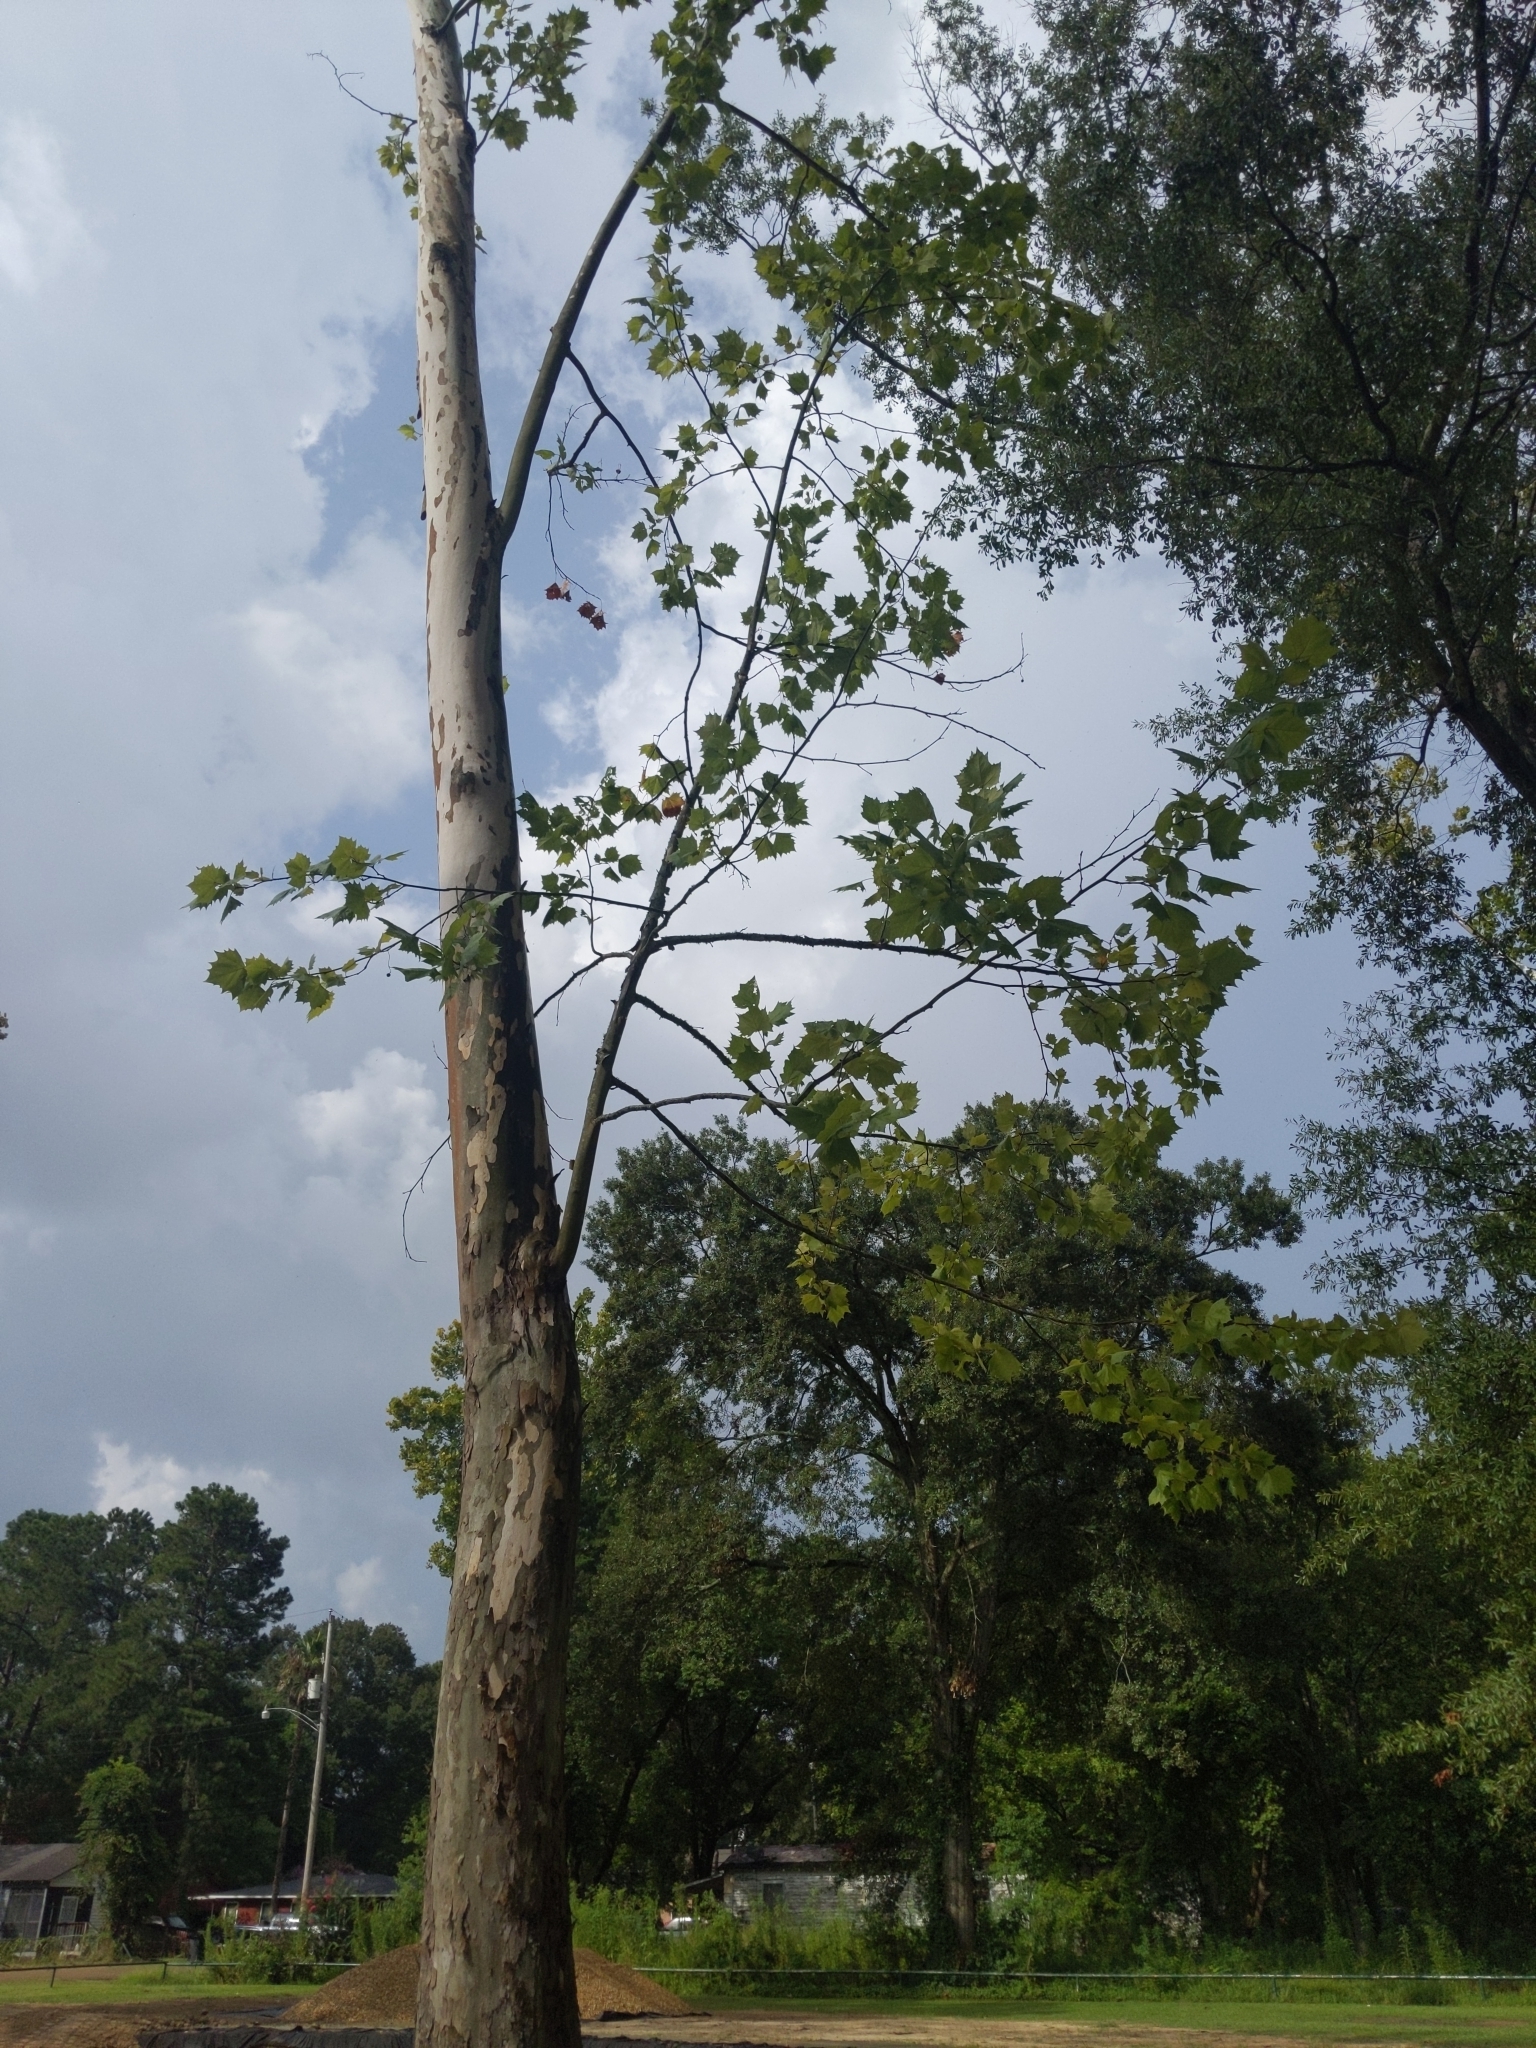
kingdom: Plantae
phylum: Tracheophyta
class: Magnoliopsida
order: Proteales
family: Platanaceae
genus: Platanus
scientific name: Platanus occidentalis
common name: American sycamore
